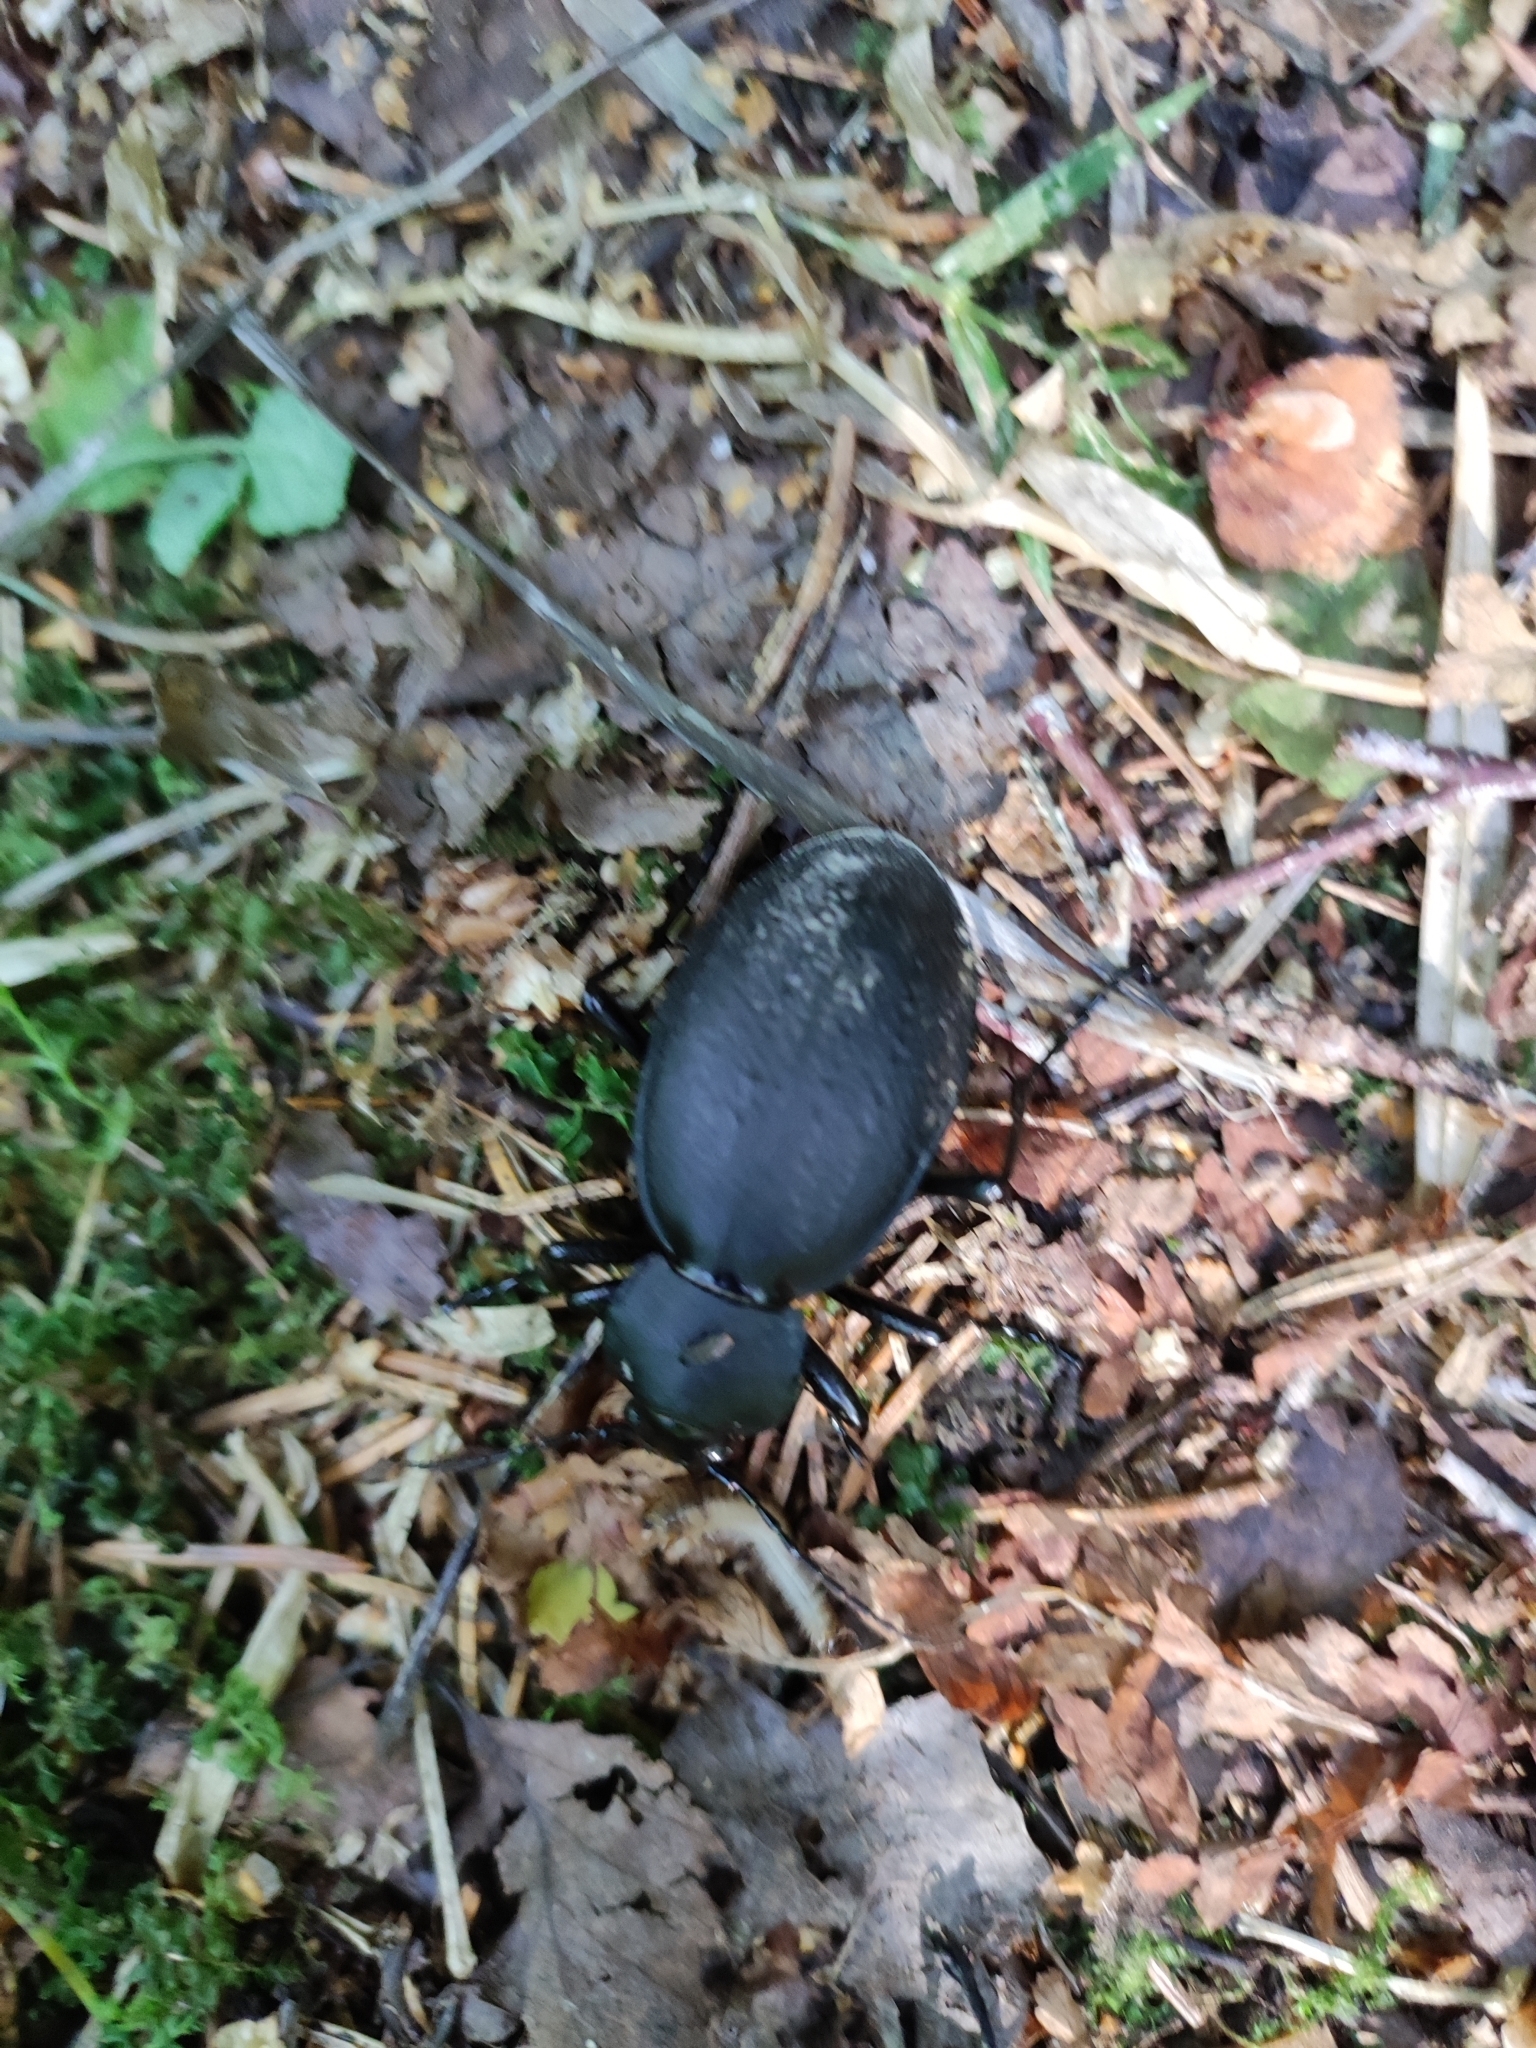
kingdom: Animalia
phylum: Arthropoda
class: Insecta
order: Coleoptera
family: Carabidae
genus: Carabus
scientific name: Carabus coriaceus
